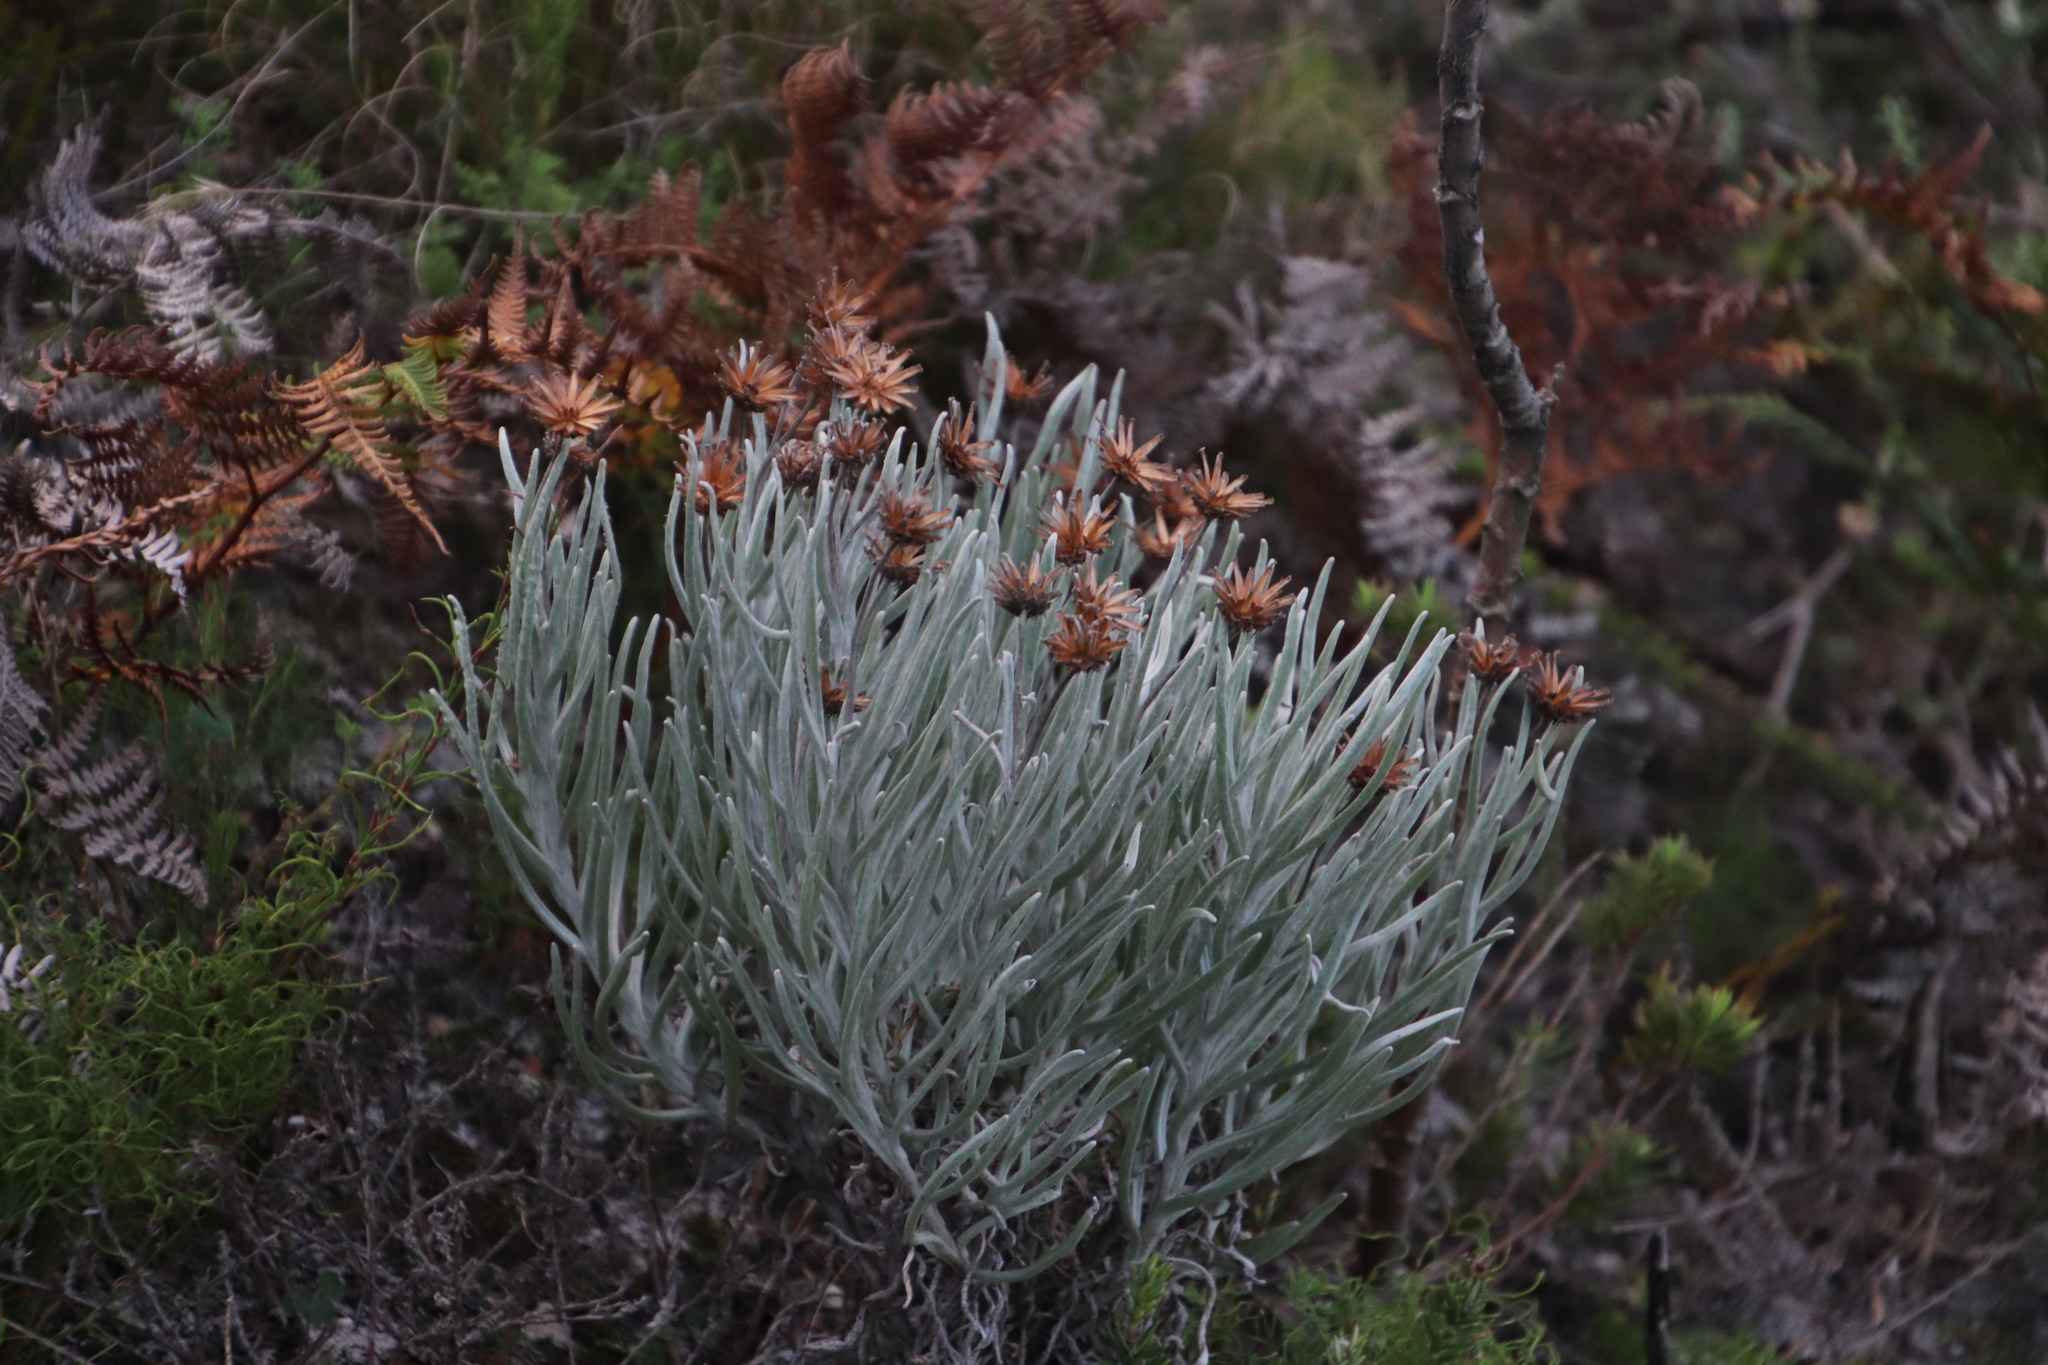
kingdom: Plantae
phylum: Tracheophyta
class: Magnoliopsida
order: Asterales
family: Asteraceae
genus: Syncarpha
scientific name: Syncarpha gnaphaloides
